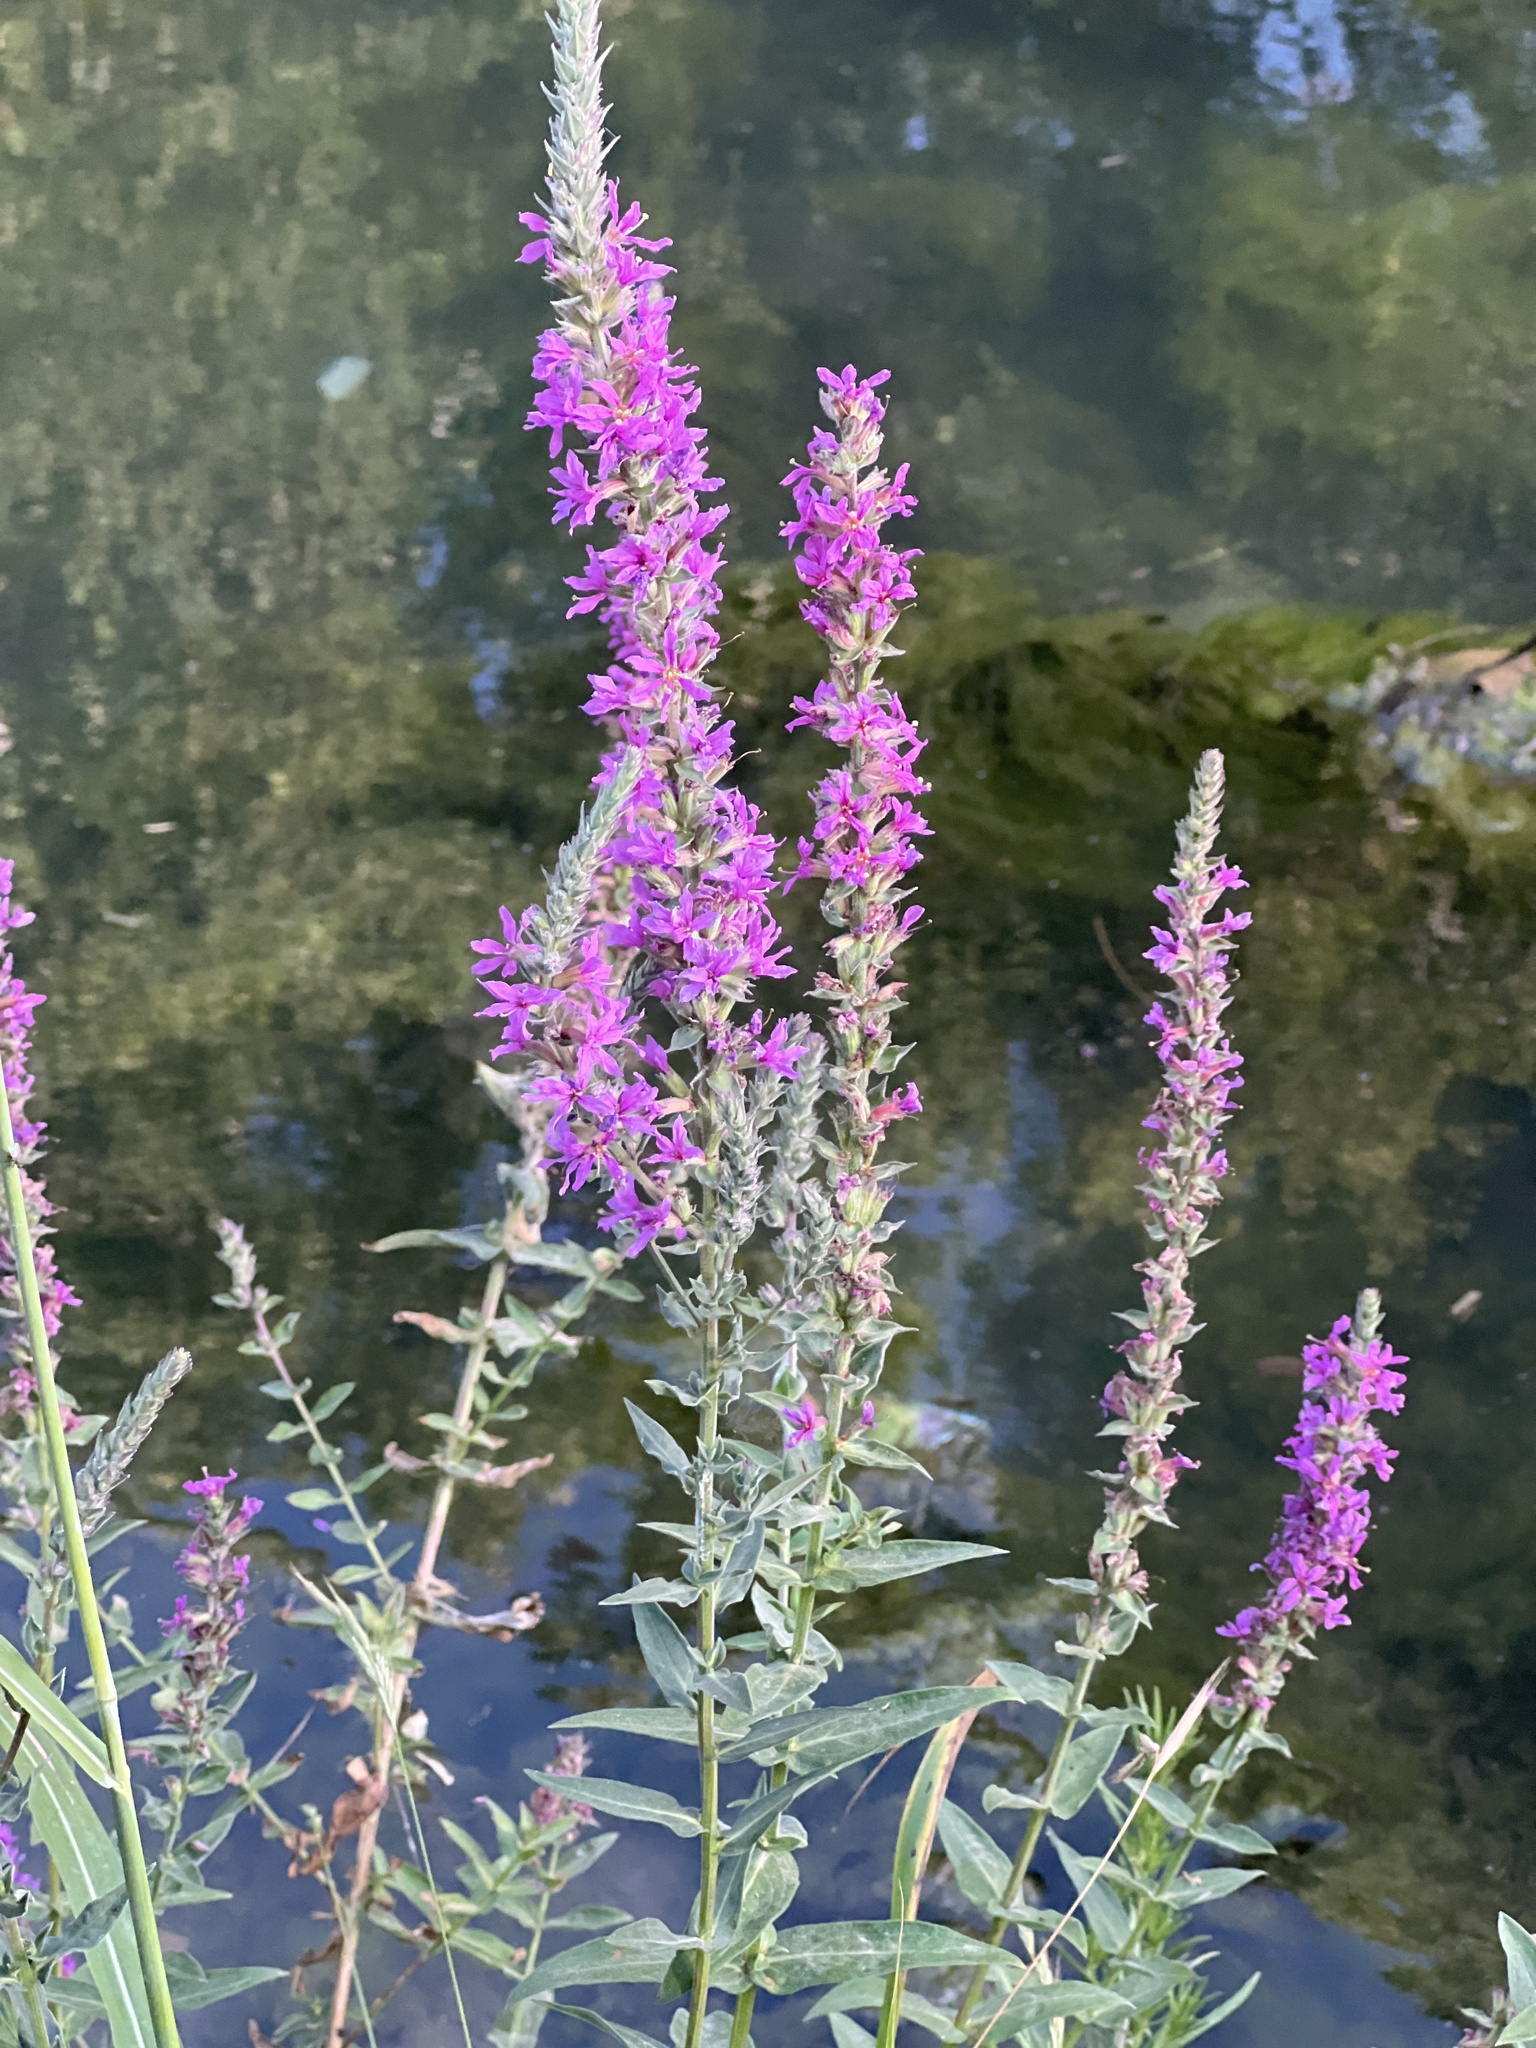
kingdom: Plantae
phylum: Tracheophyta
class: Magnoliopsida
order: Myrtales
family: Lythraceae
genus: Lythrum
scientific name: Lythrum salicaria
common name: Purple loosestrife
